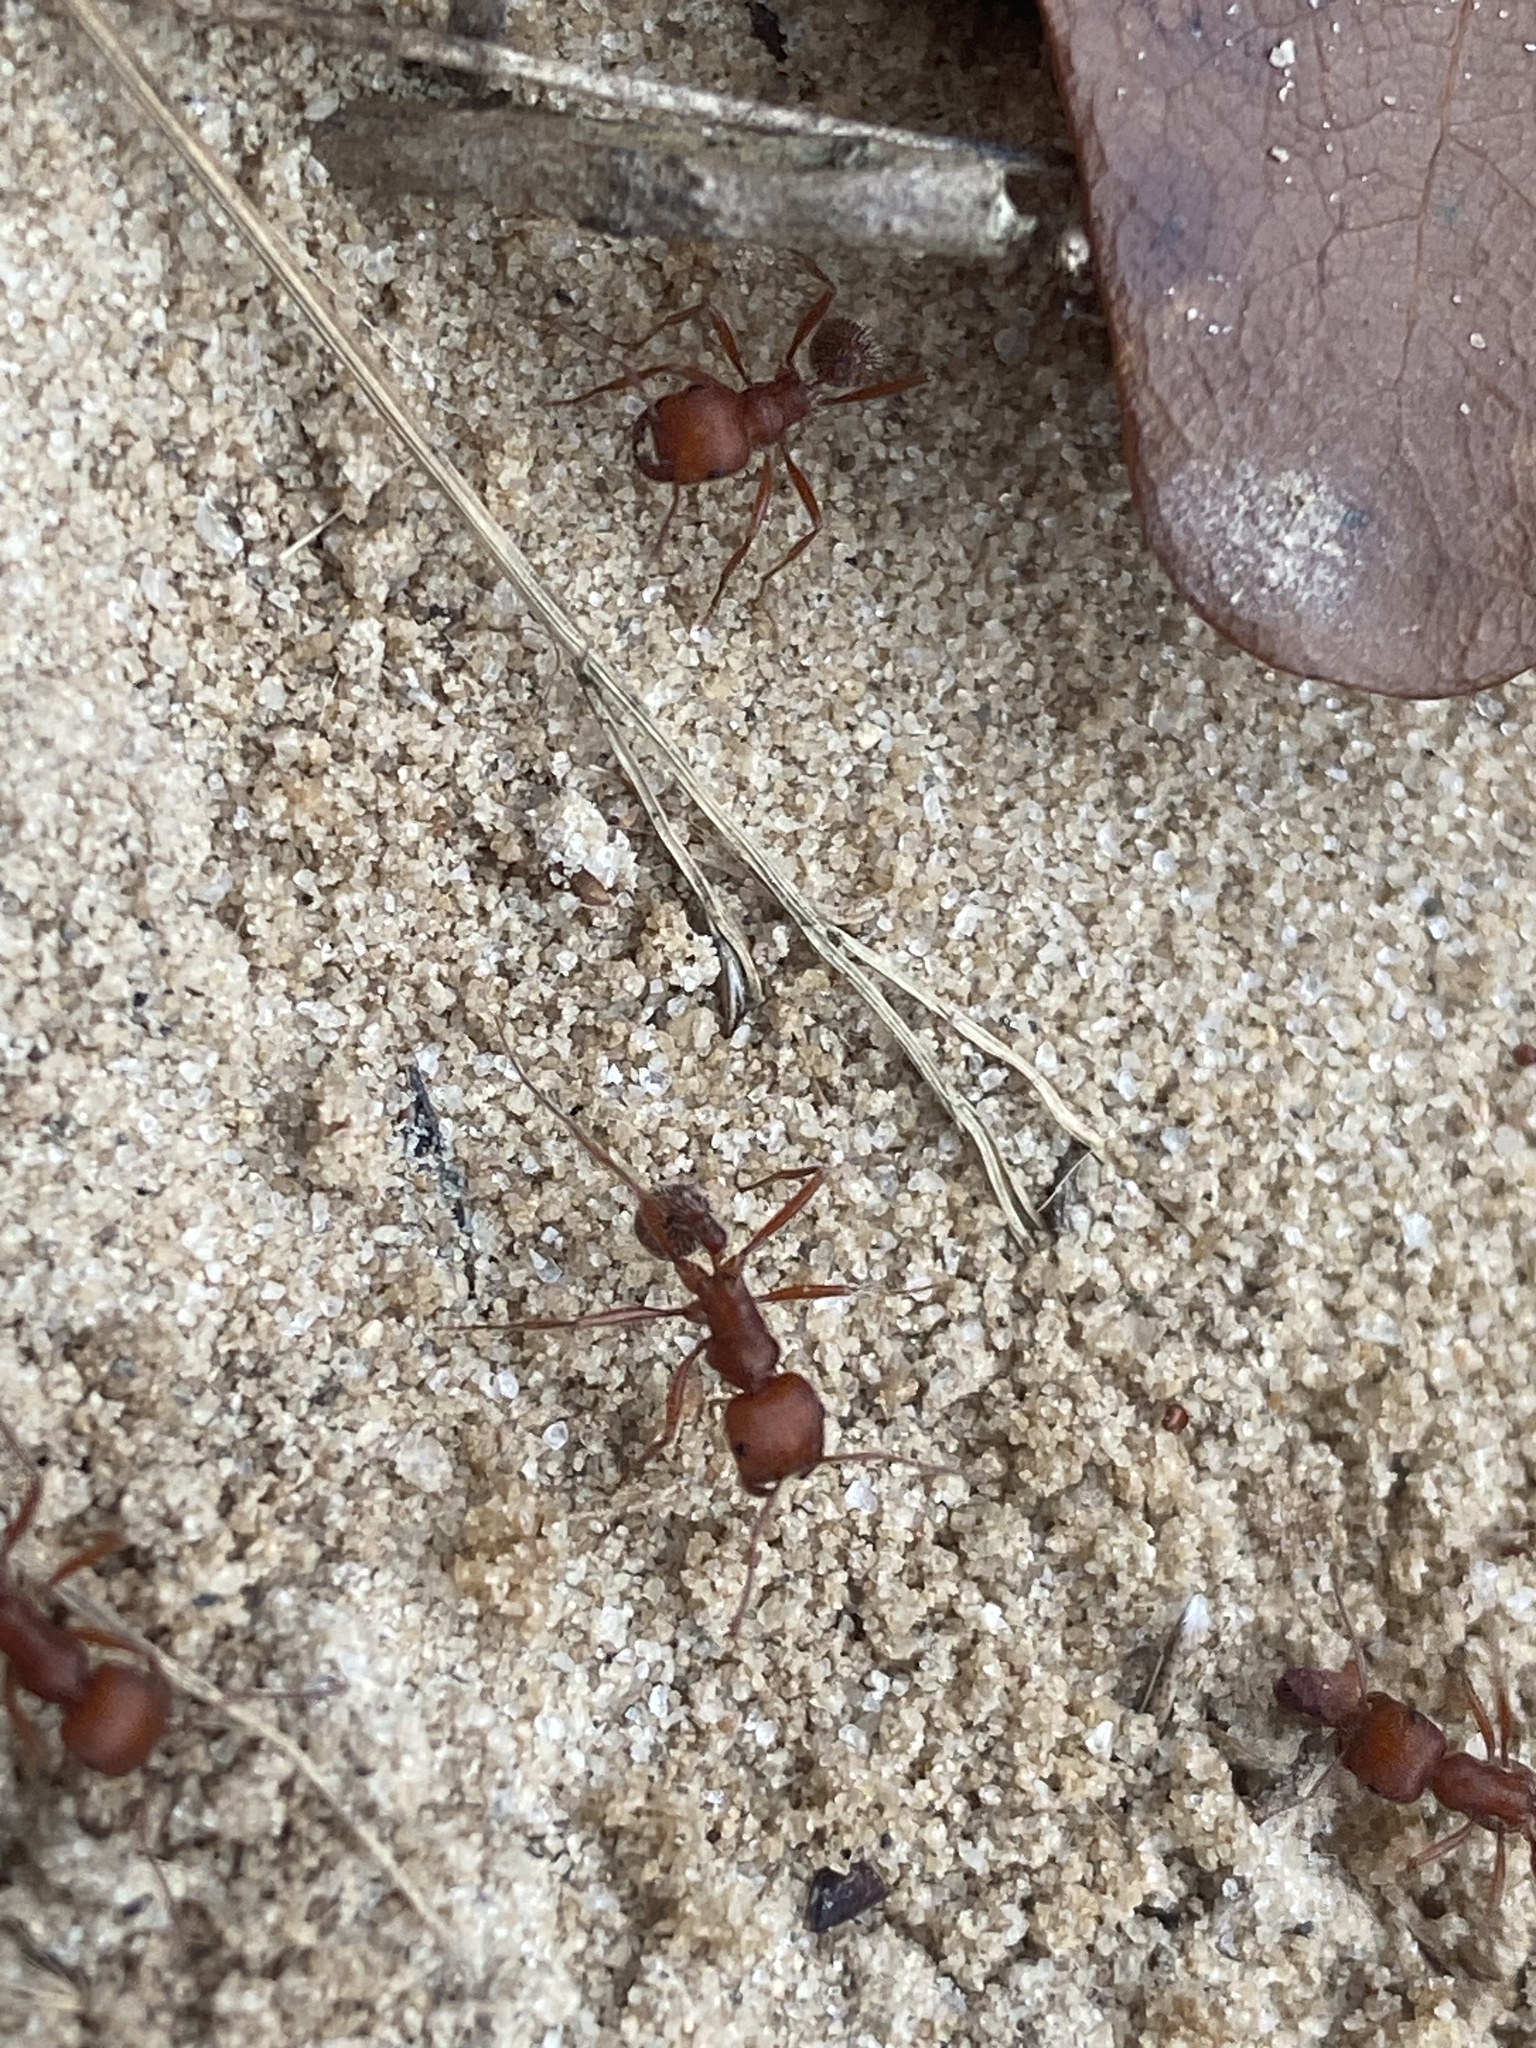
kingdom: Animalia
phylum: Arthropoda
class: Insecta
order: Hymenoptera
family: Formicidae
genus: Pogonomyrmex
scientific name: Pogonomyrmex comanche
